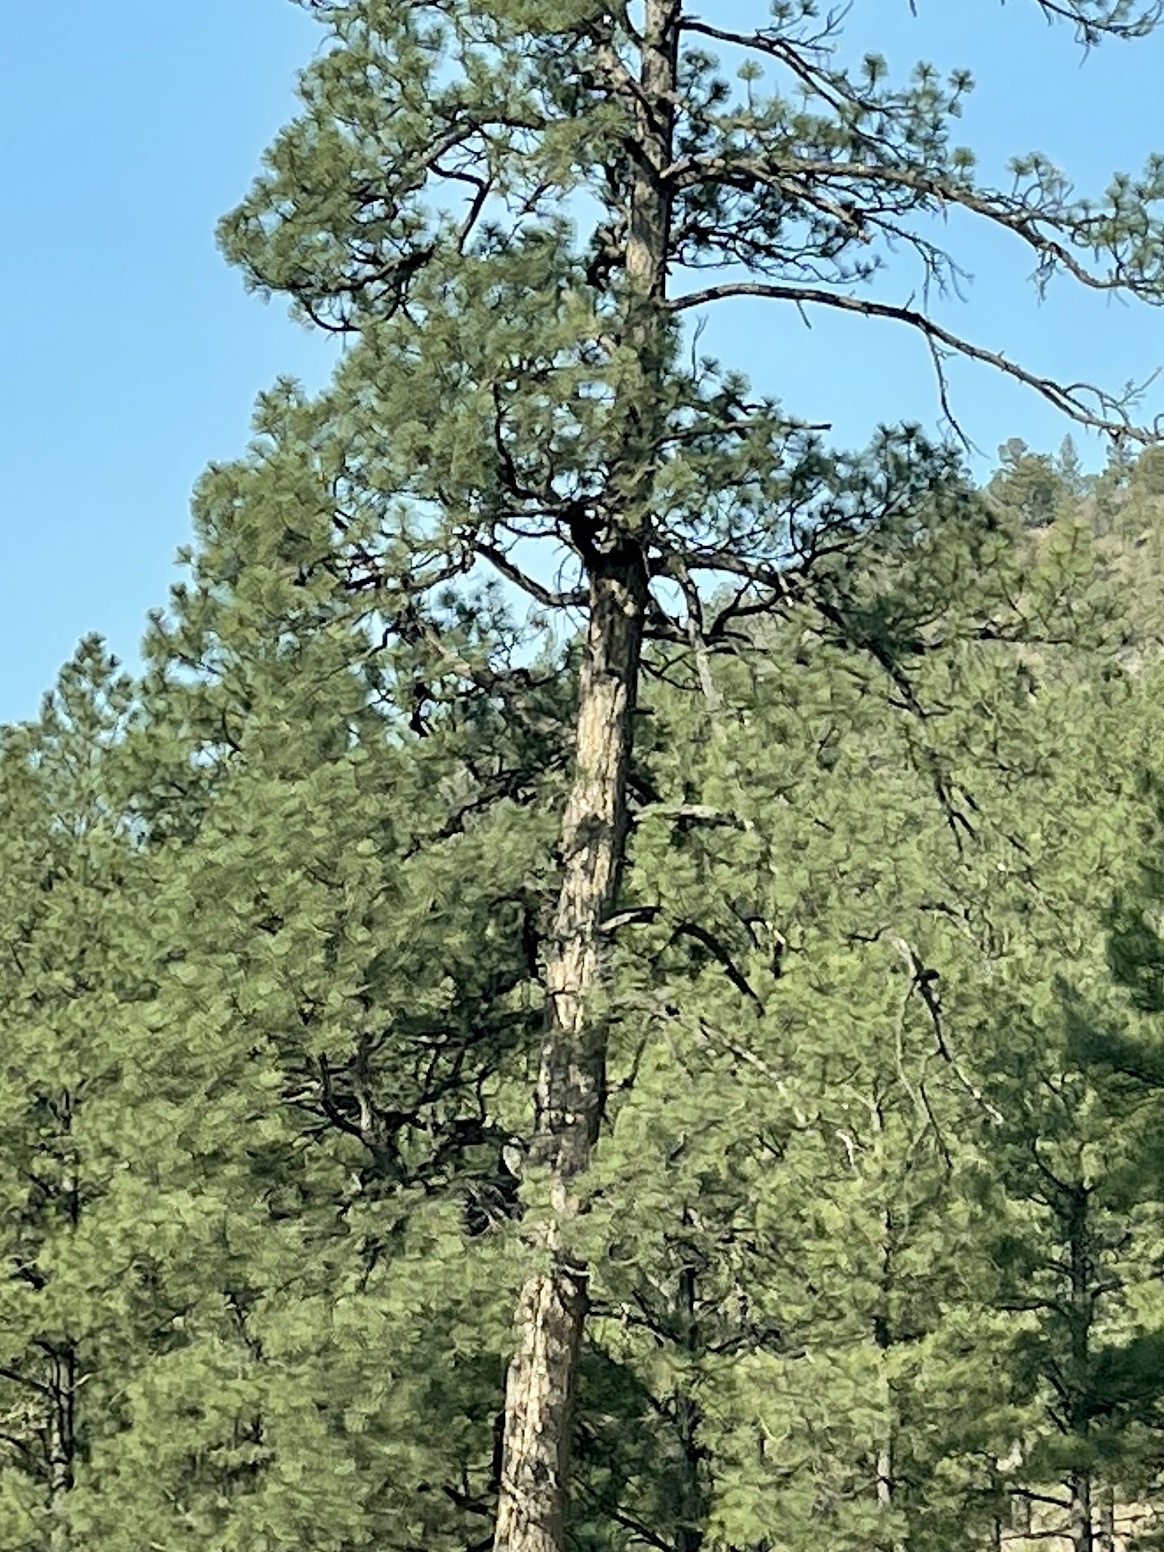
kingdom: Plantae
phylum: Tracheophyta
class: Pinopsida
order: Pinales
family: Pinaceae
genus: Pinus
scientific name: Pinus ponderosa
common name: Western yellow-pine
